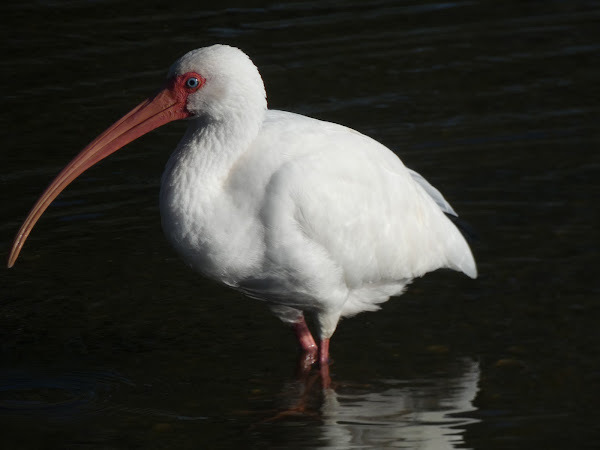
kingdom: Animalia
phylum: Chordata
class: Aves
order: Pelecaniformes
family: Threskiornithidae
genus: Eudocimus
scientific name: Eudocimus albus
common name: White ibis
